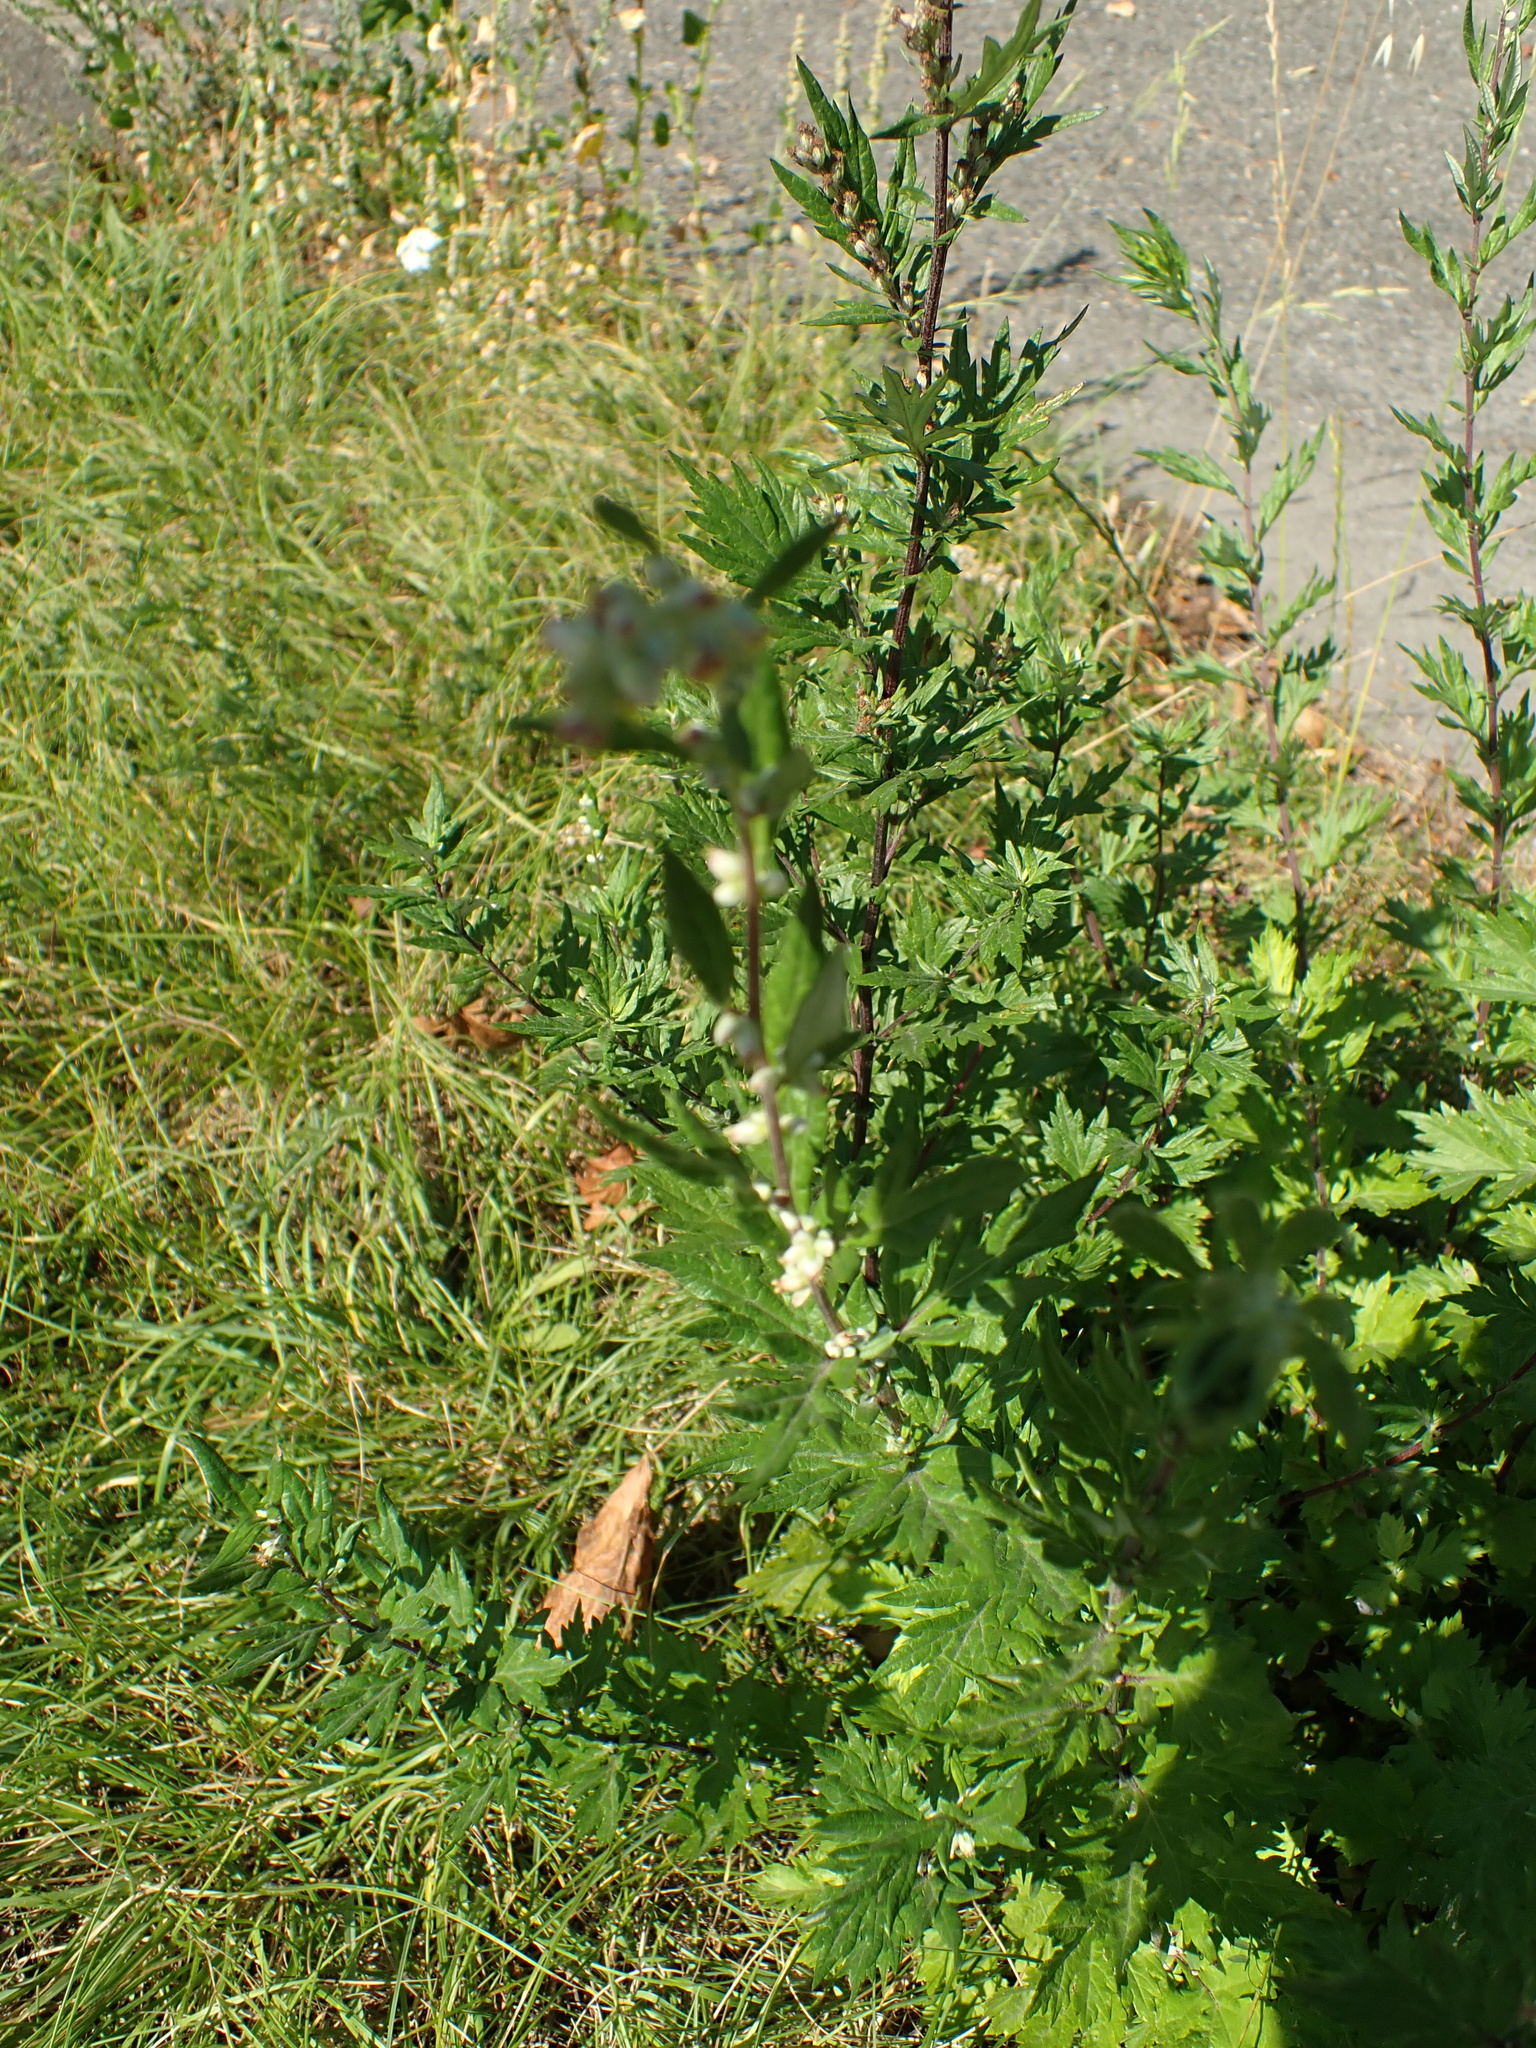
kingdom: Plantae
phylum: Tracheophyta
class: Magnoliopsida
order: Asterales
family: Asteraceae
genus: Artemisia
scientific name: Artemisia vulgaris
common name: Mugwort
